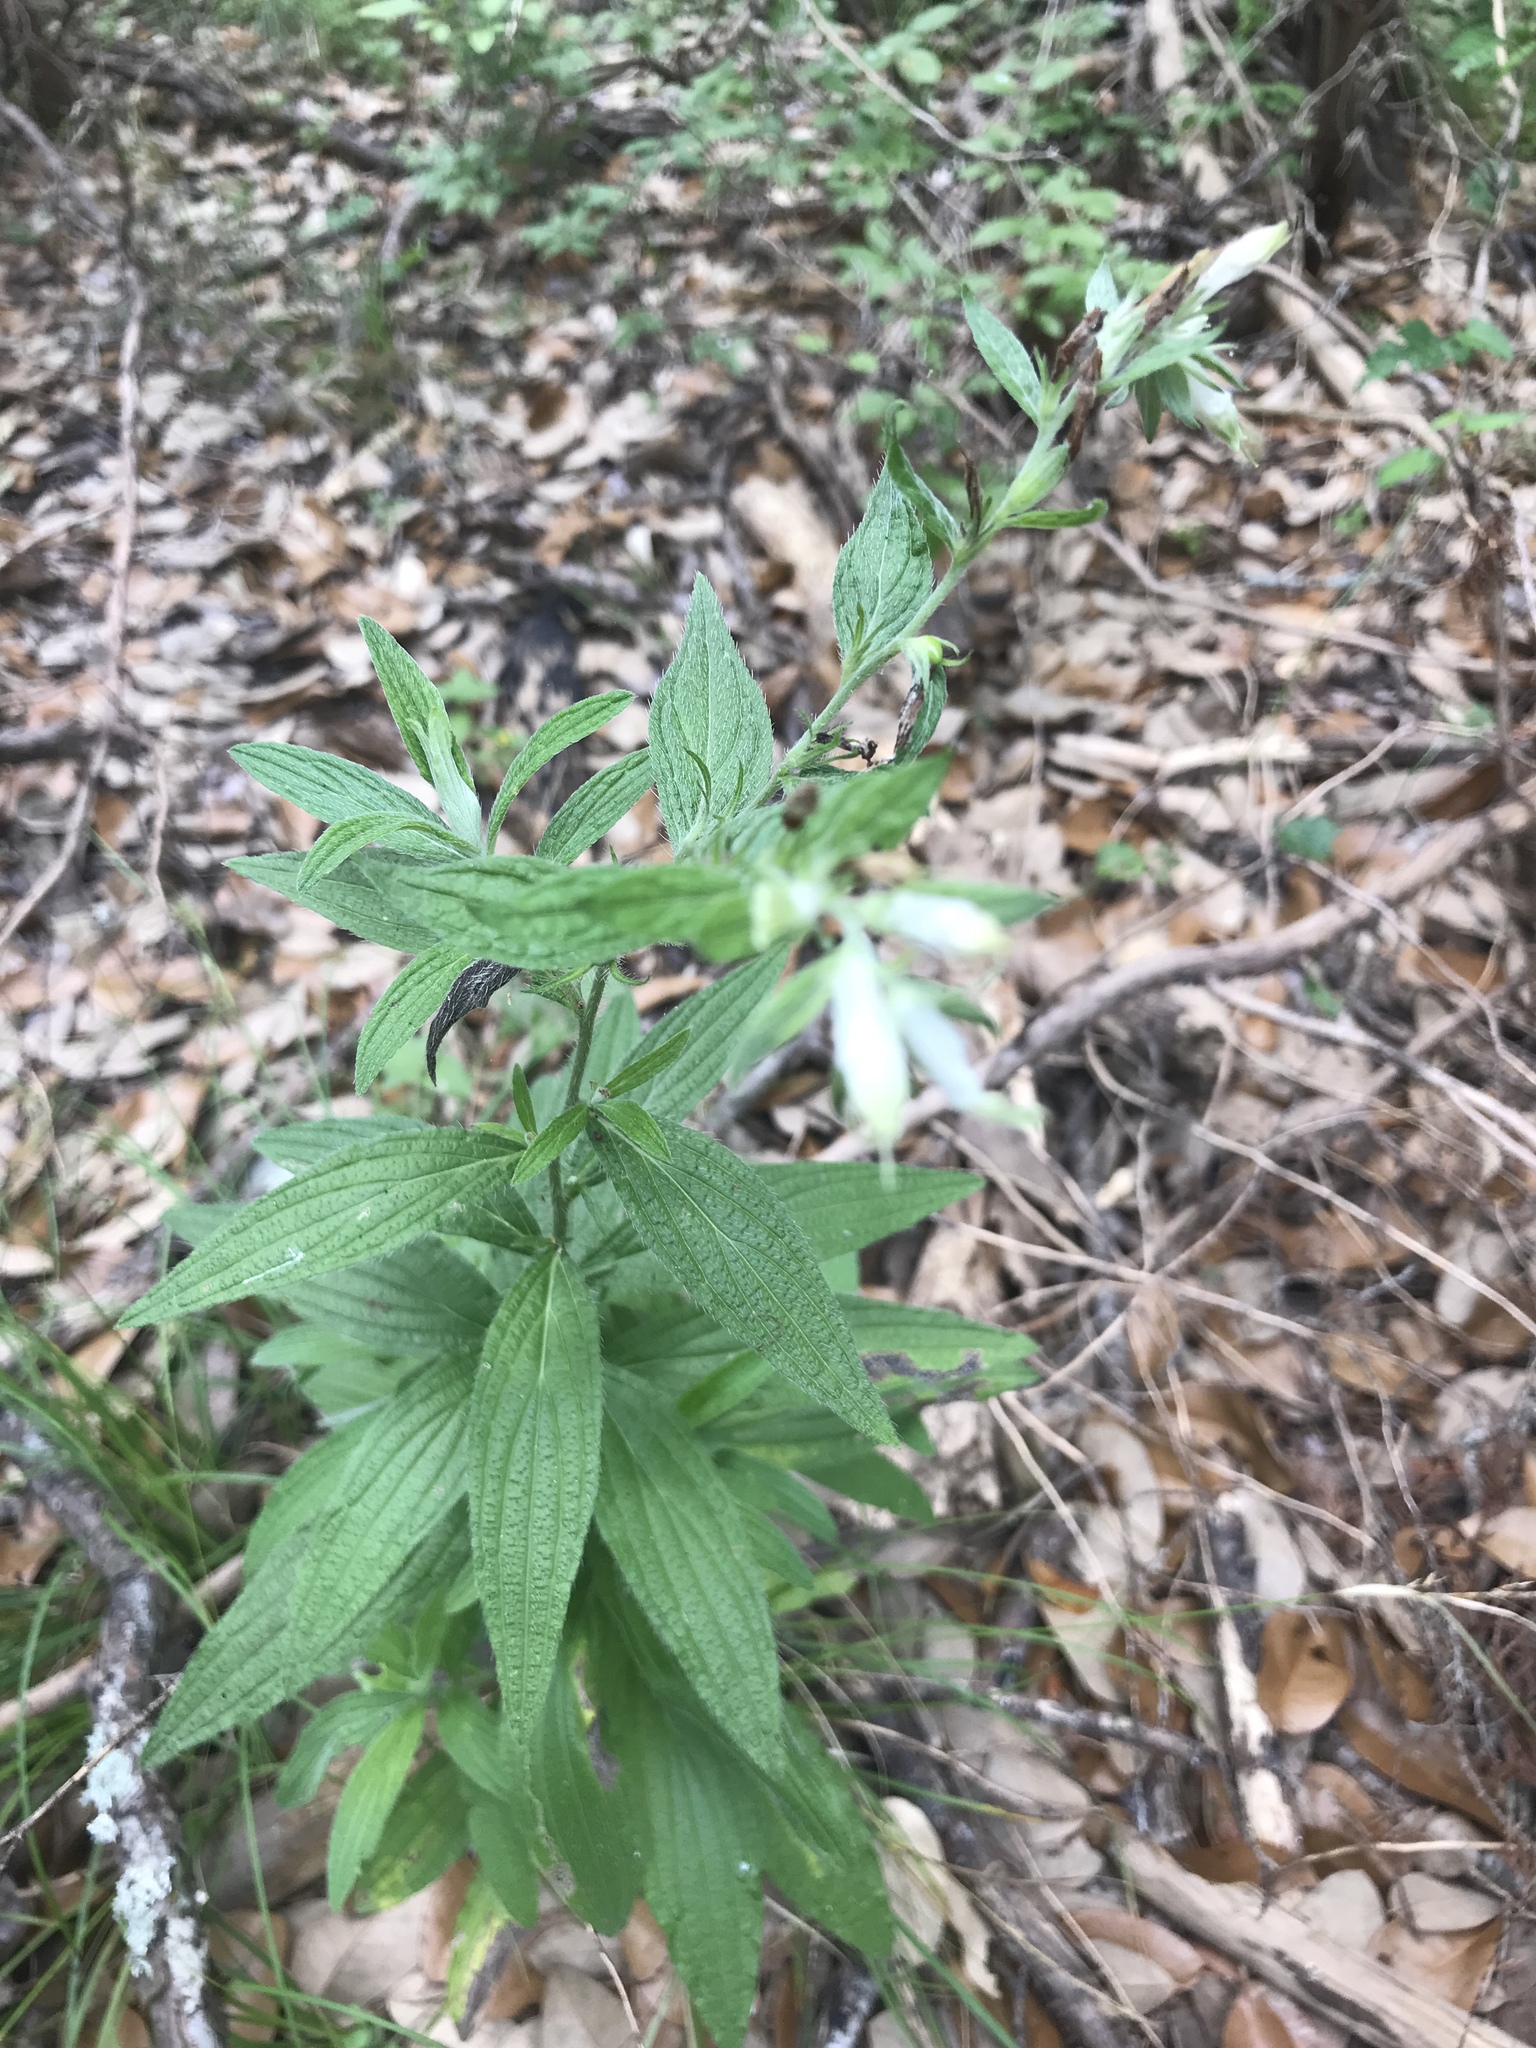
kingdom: Plantae
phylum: Tracheophyta
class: Magnoliopsida
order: Boraginales
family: Boraginaceae
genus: Lithospermum
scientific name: Lithospermum caroliniense
